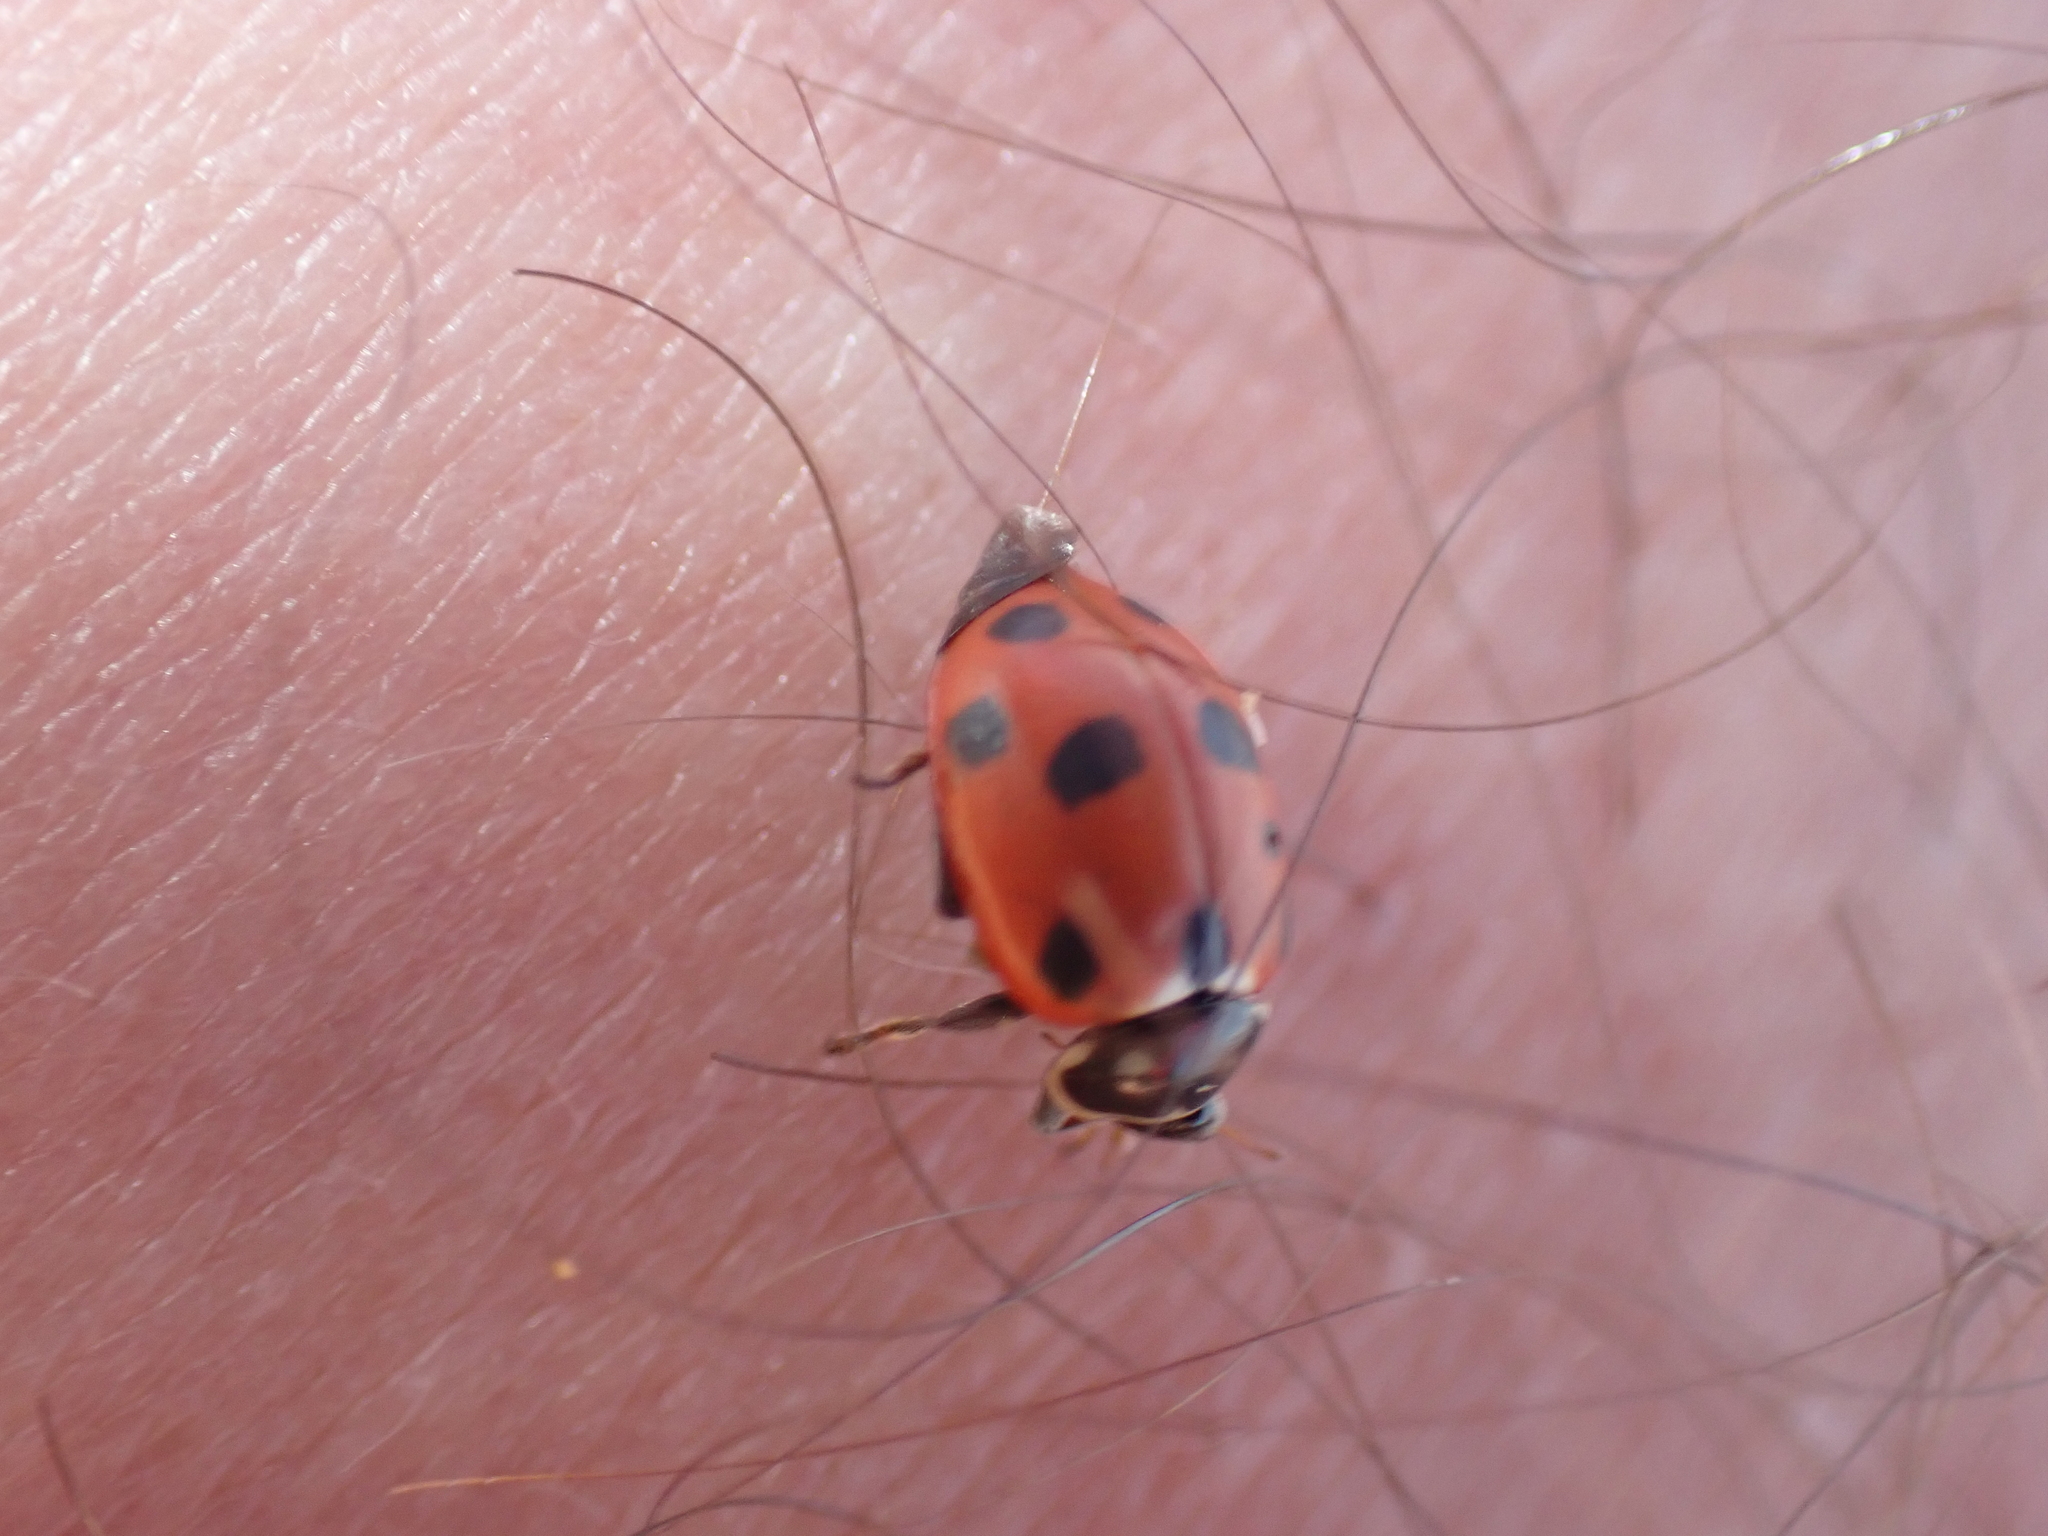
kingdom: Animalia
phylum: Arthropoda
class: Insecta
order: Coleoptera
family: Coccinellidae
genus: Hippodamia
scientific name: Hippodamia variegata
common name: Ladybird beetle
